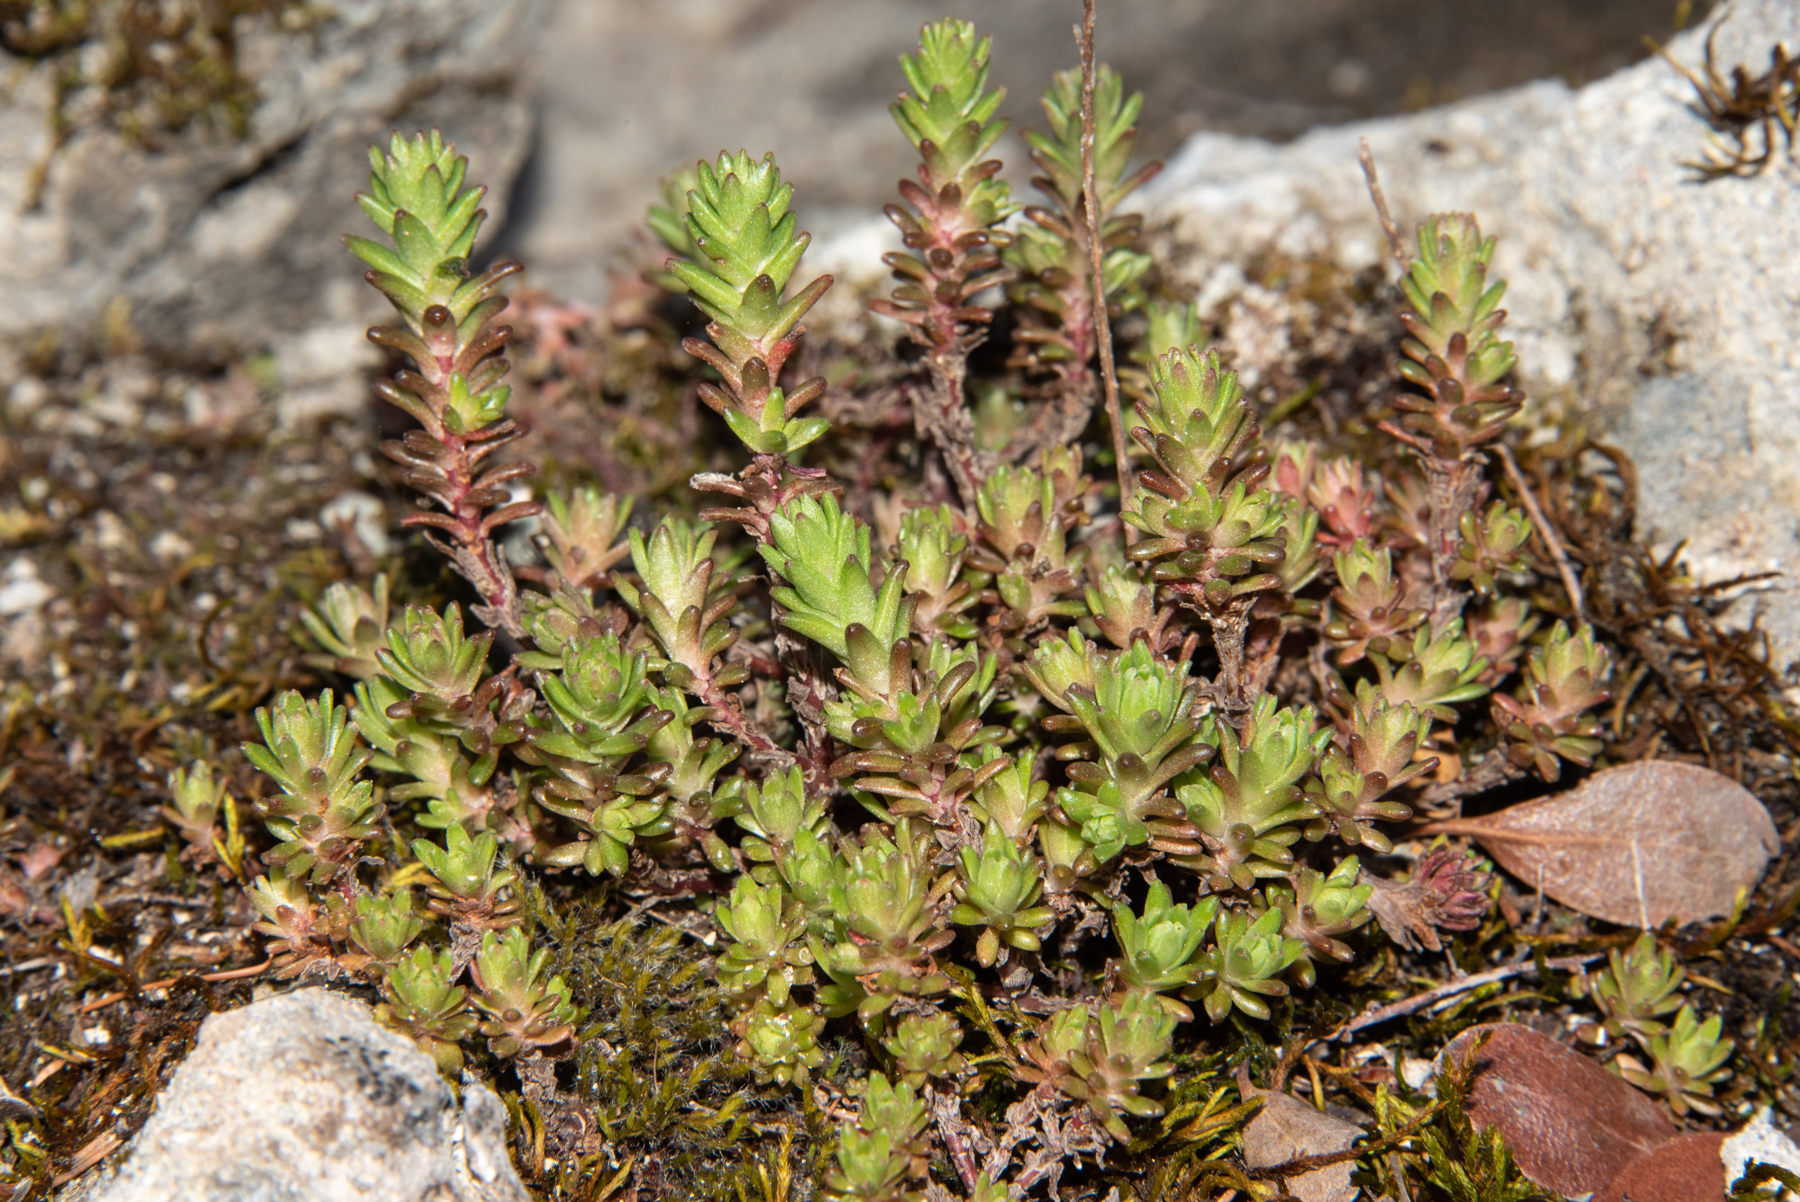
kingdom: Plantae
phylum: Tracheophyta
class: Magnoliopsida
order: Saxifragales
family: Crassulaceae
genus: Sedum
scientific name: Sedum radiatum
